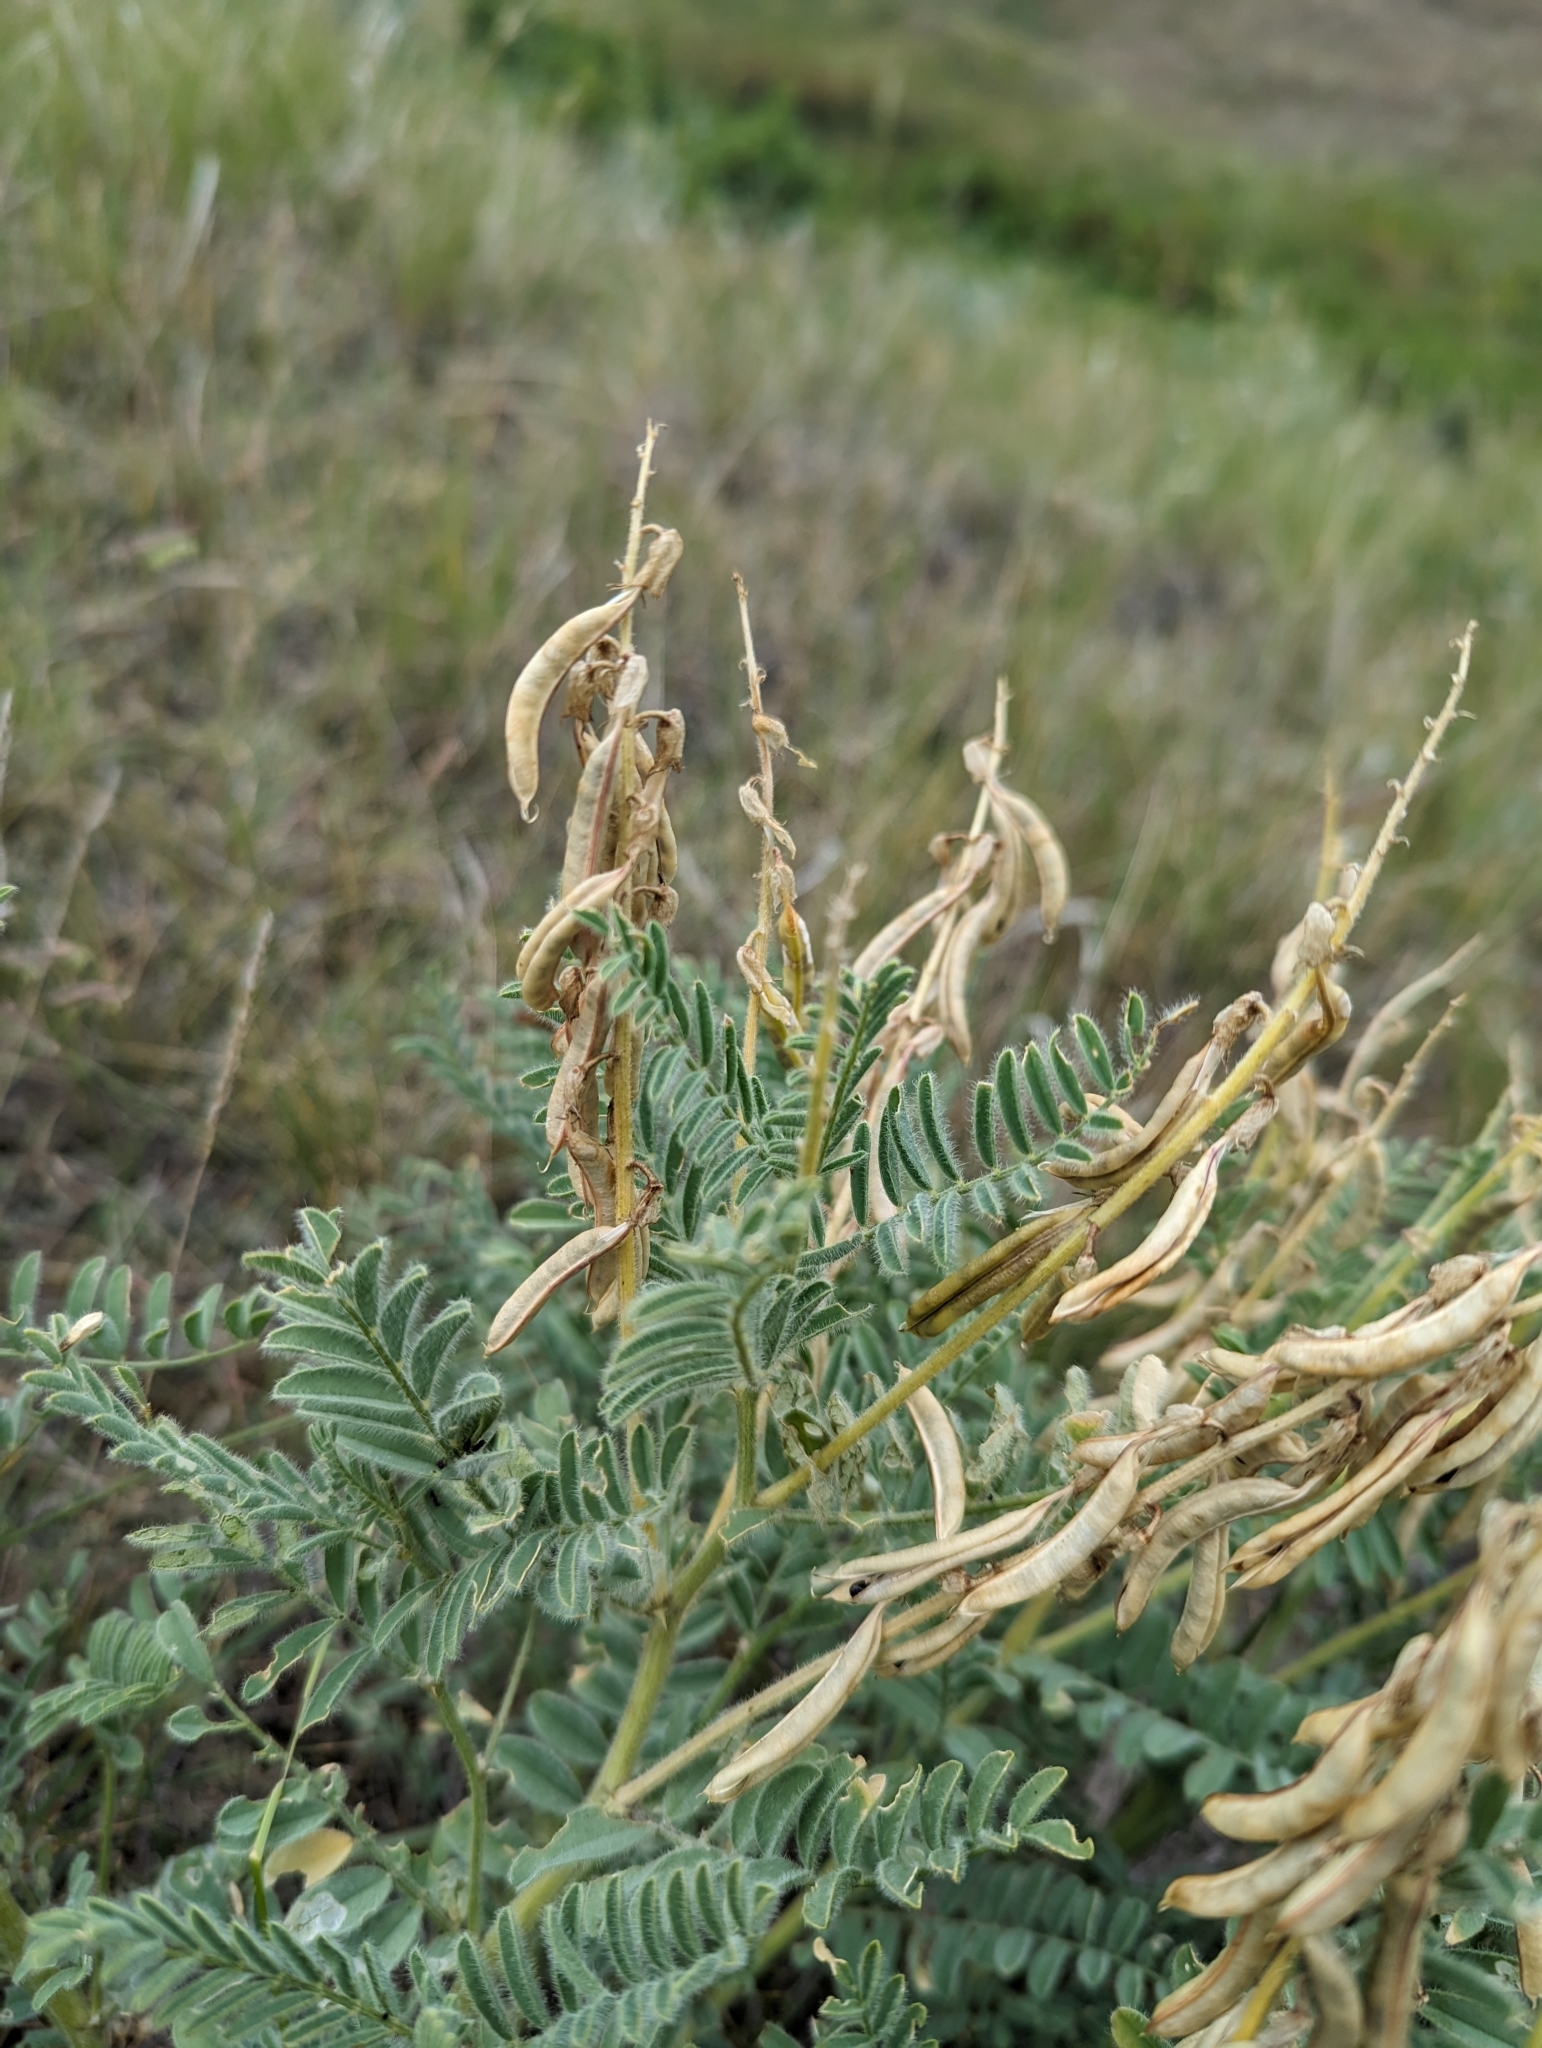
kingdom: Plantae
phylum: Tracheophyta
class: Magnoliopsida
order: Fabales
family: Fabaceae
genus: Astragalus
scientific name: Astragalus drummondii
